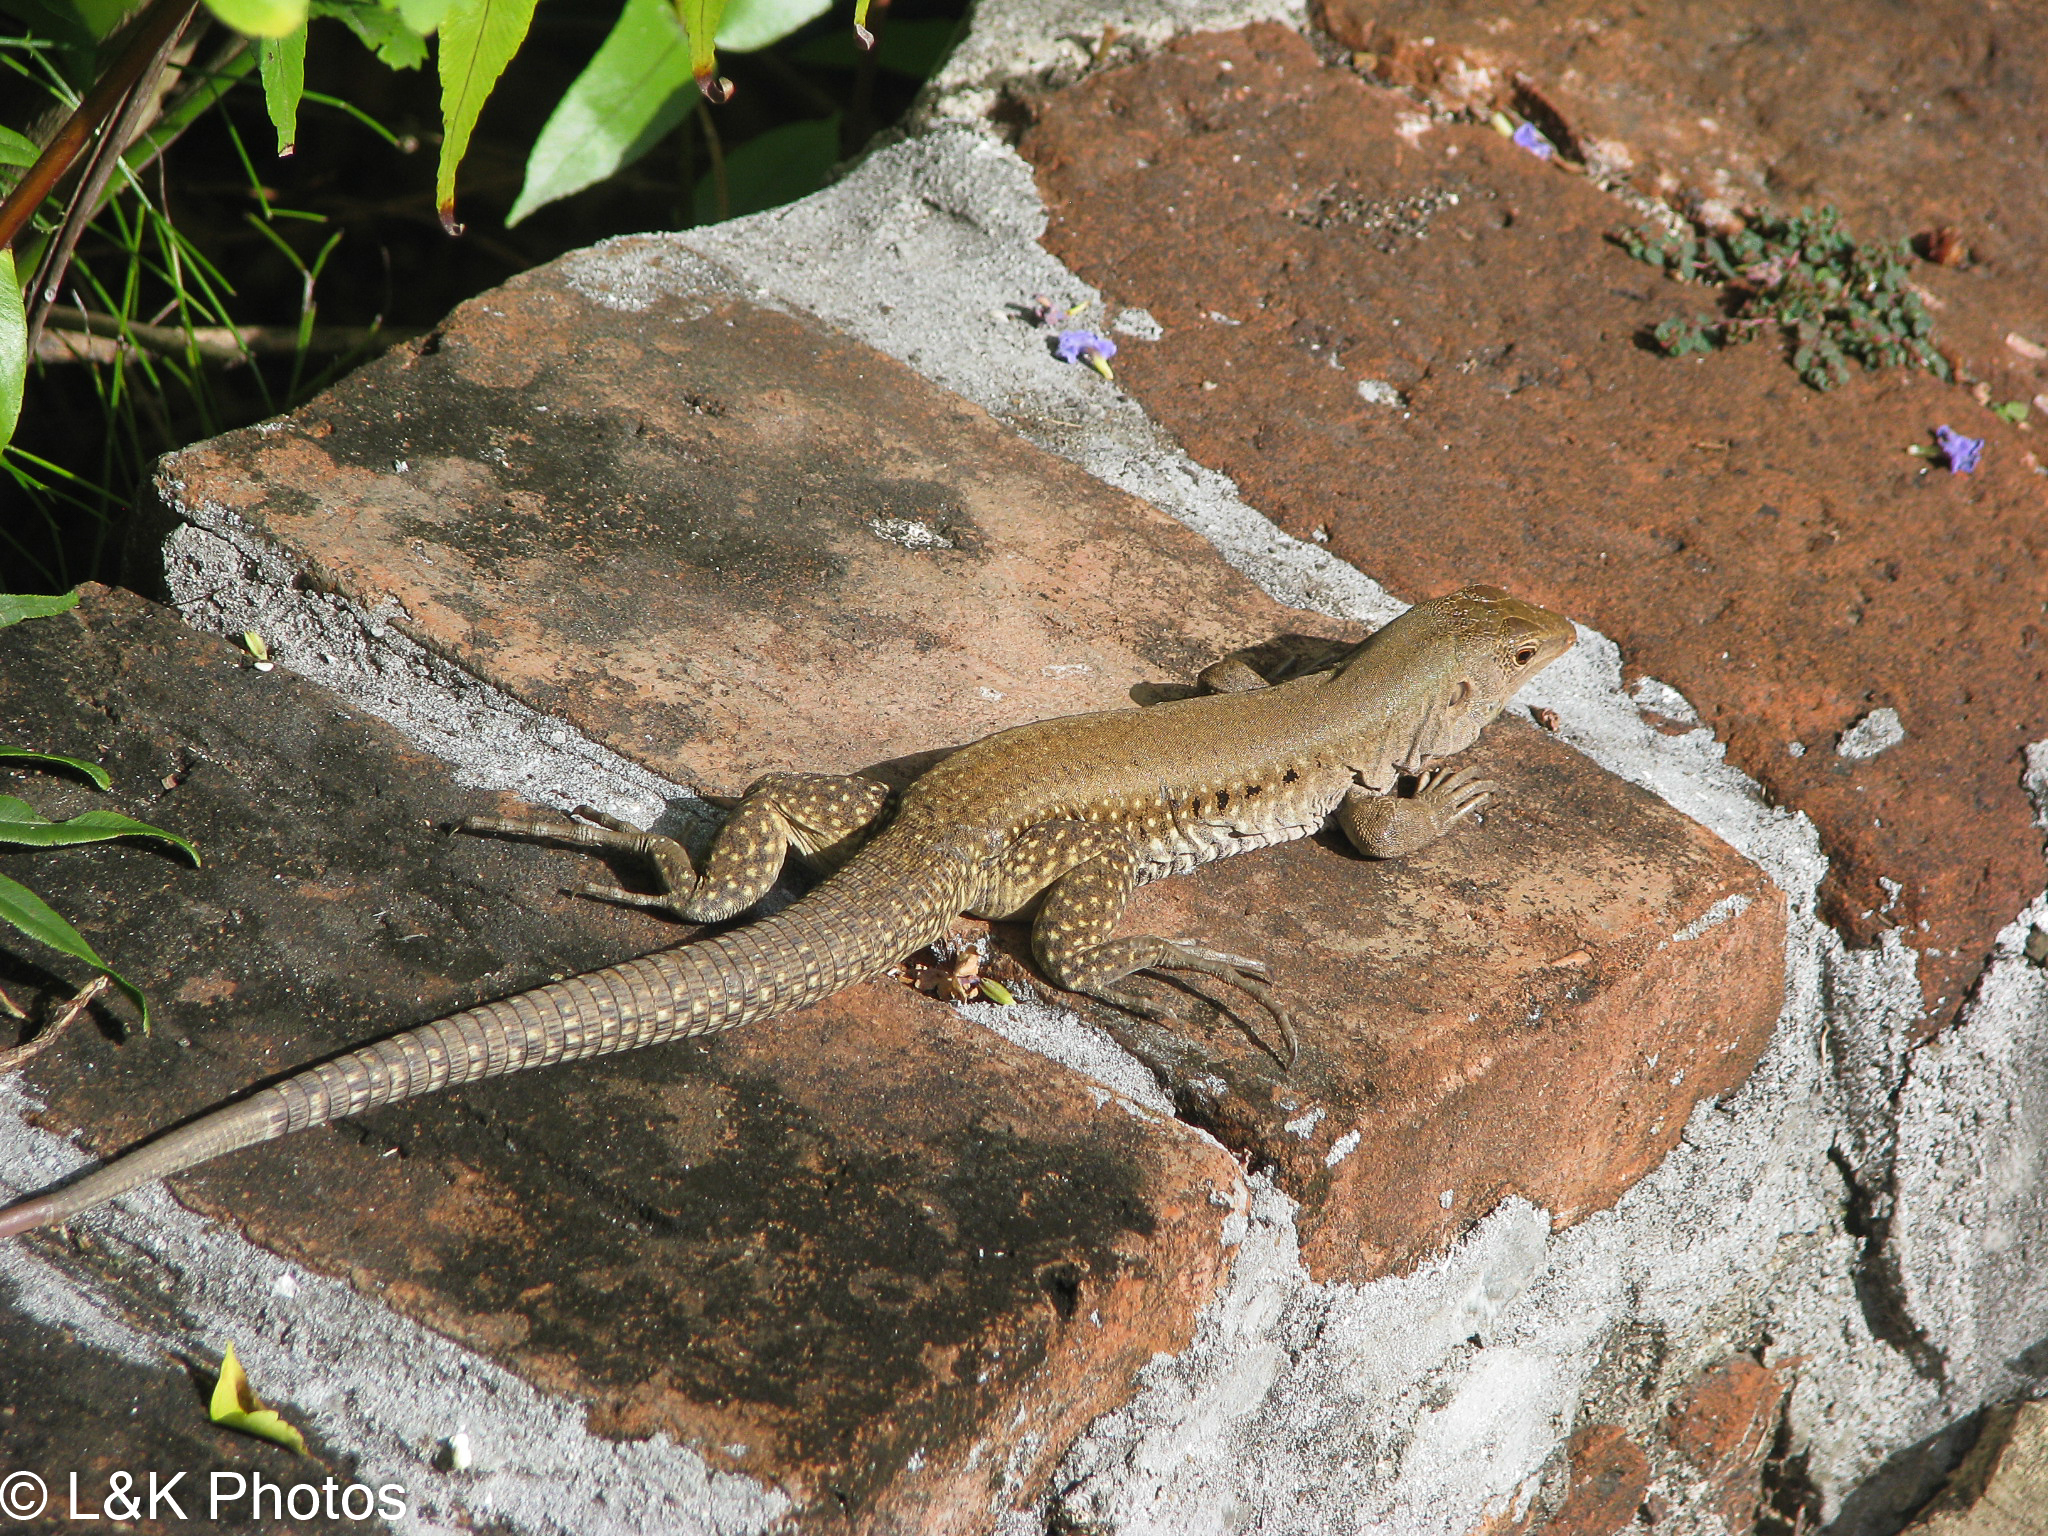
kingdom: Animalia
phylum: Chordata
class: Squamata
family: Teiidae
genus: Pholidoscelis
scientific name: Pholidoscelis exsul
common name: Common puerto rican ameiva
